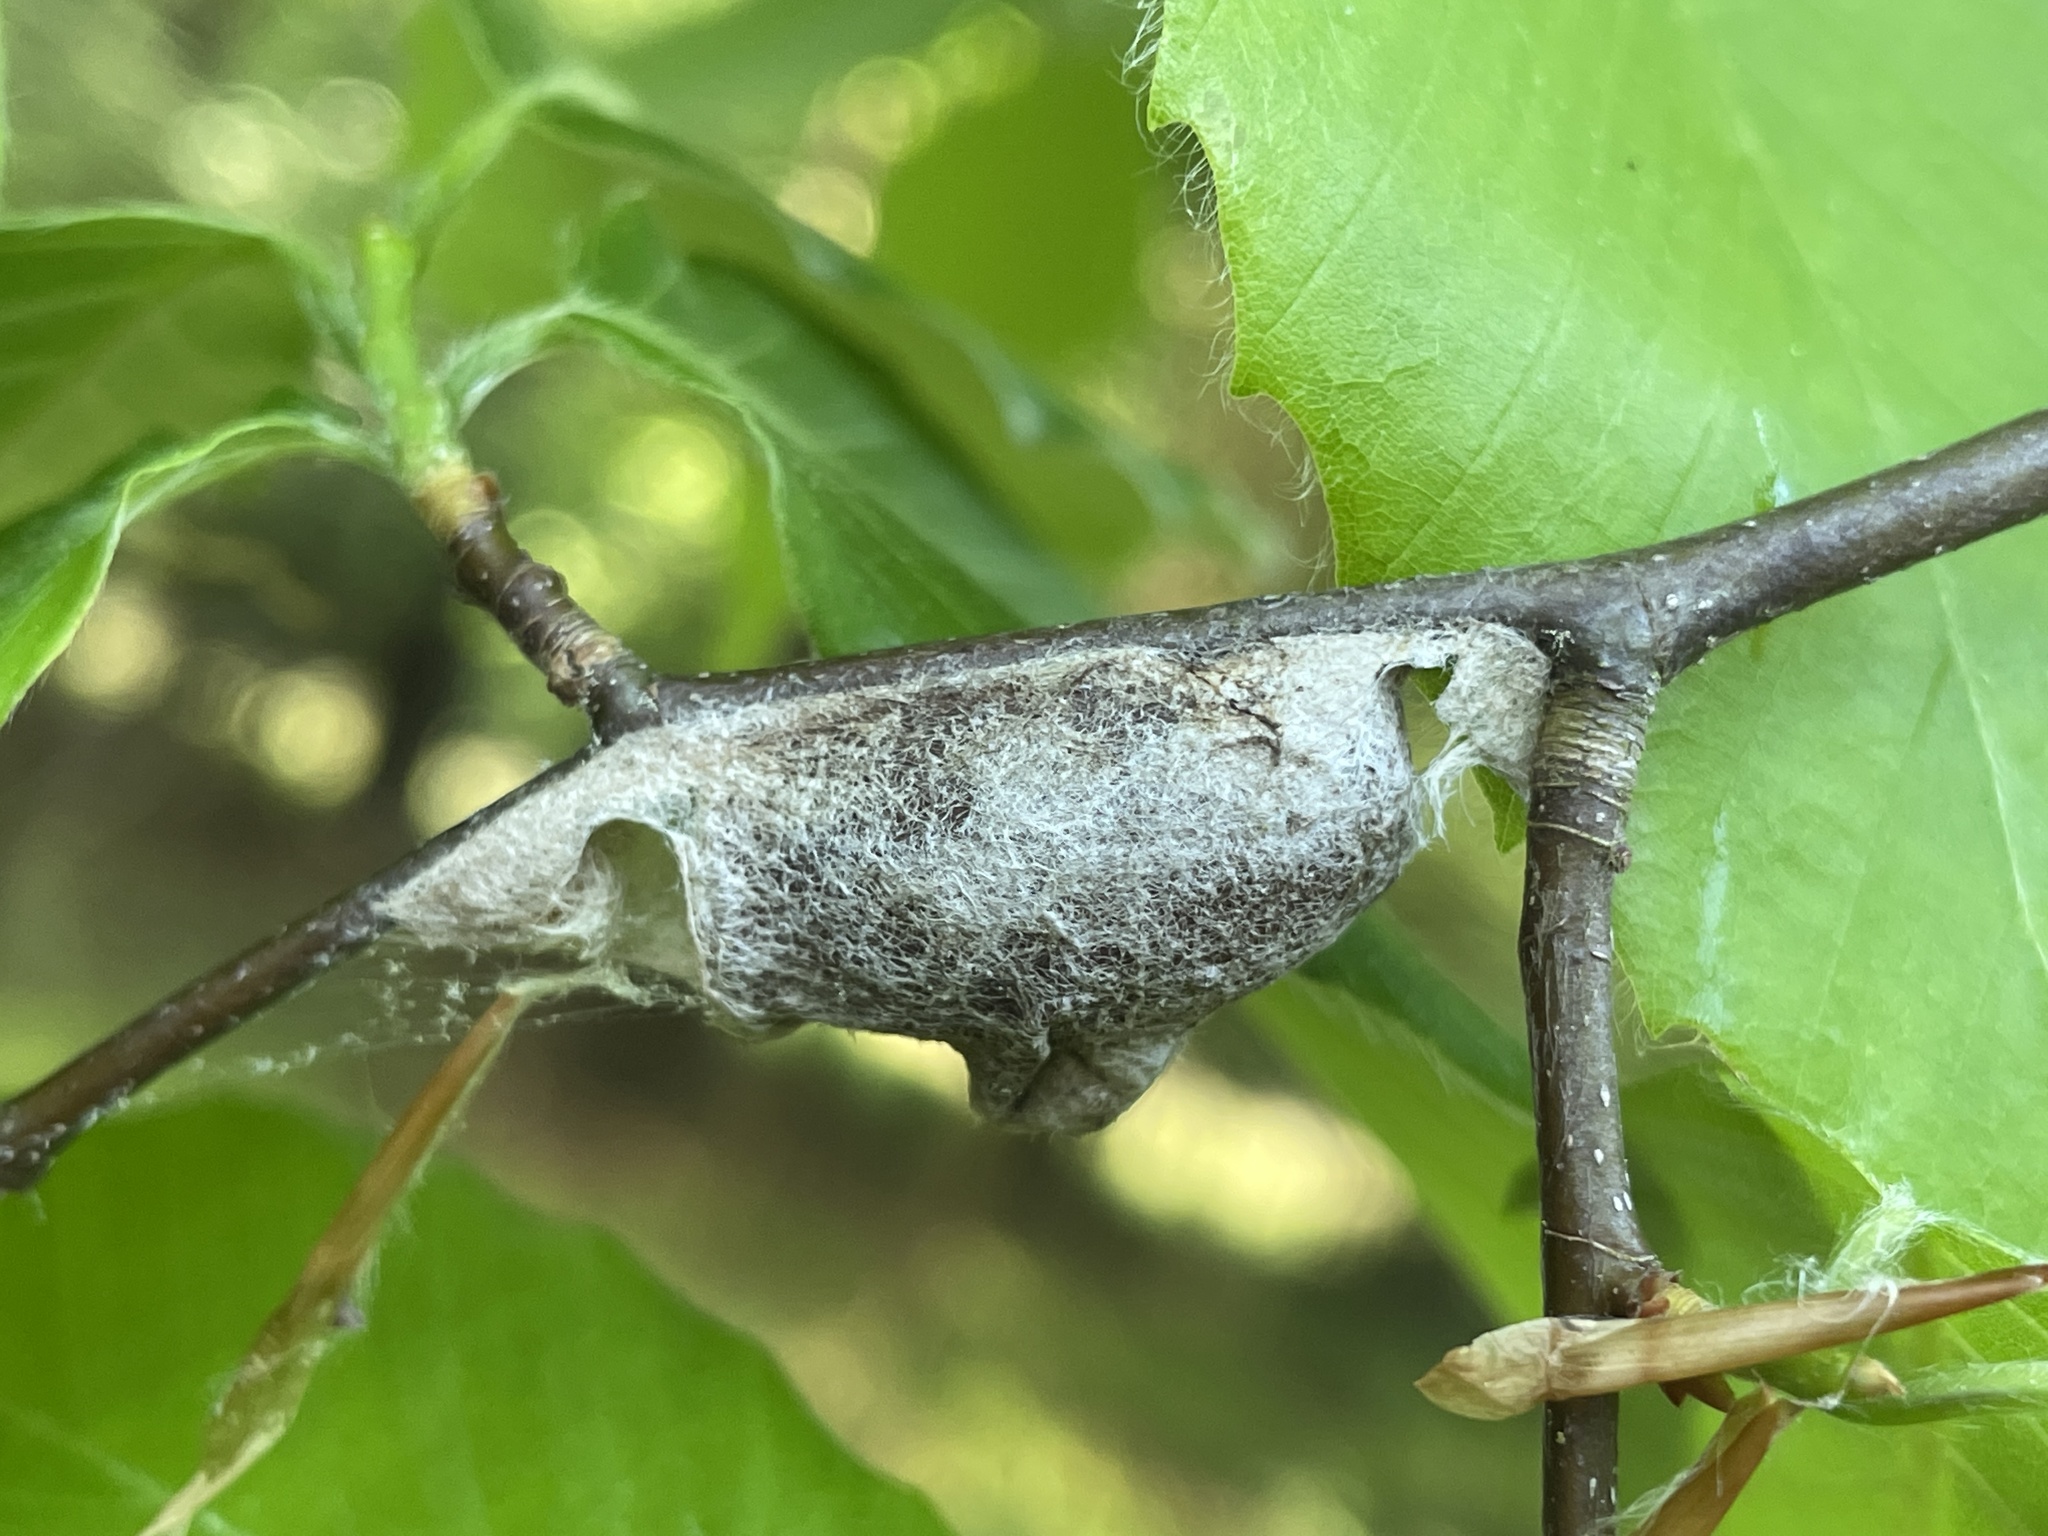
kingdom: Animalia
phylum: Arthropoda
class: Insecta
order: Lepidoptera
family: Megalopygidae
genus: Megalopyge
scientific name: Megalopyge
